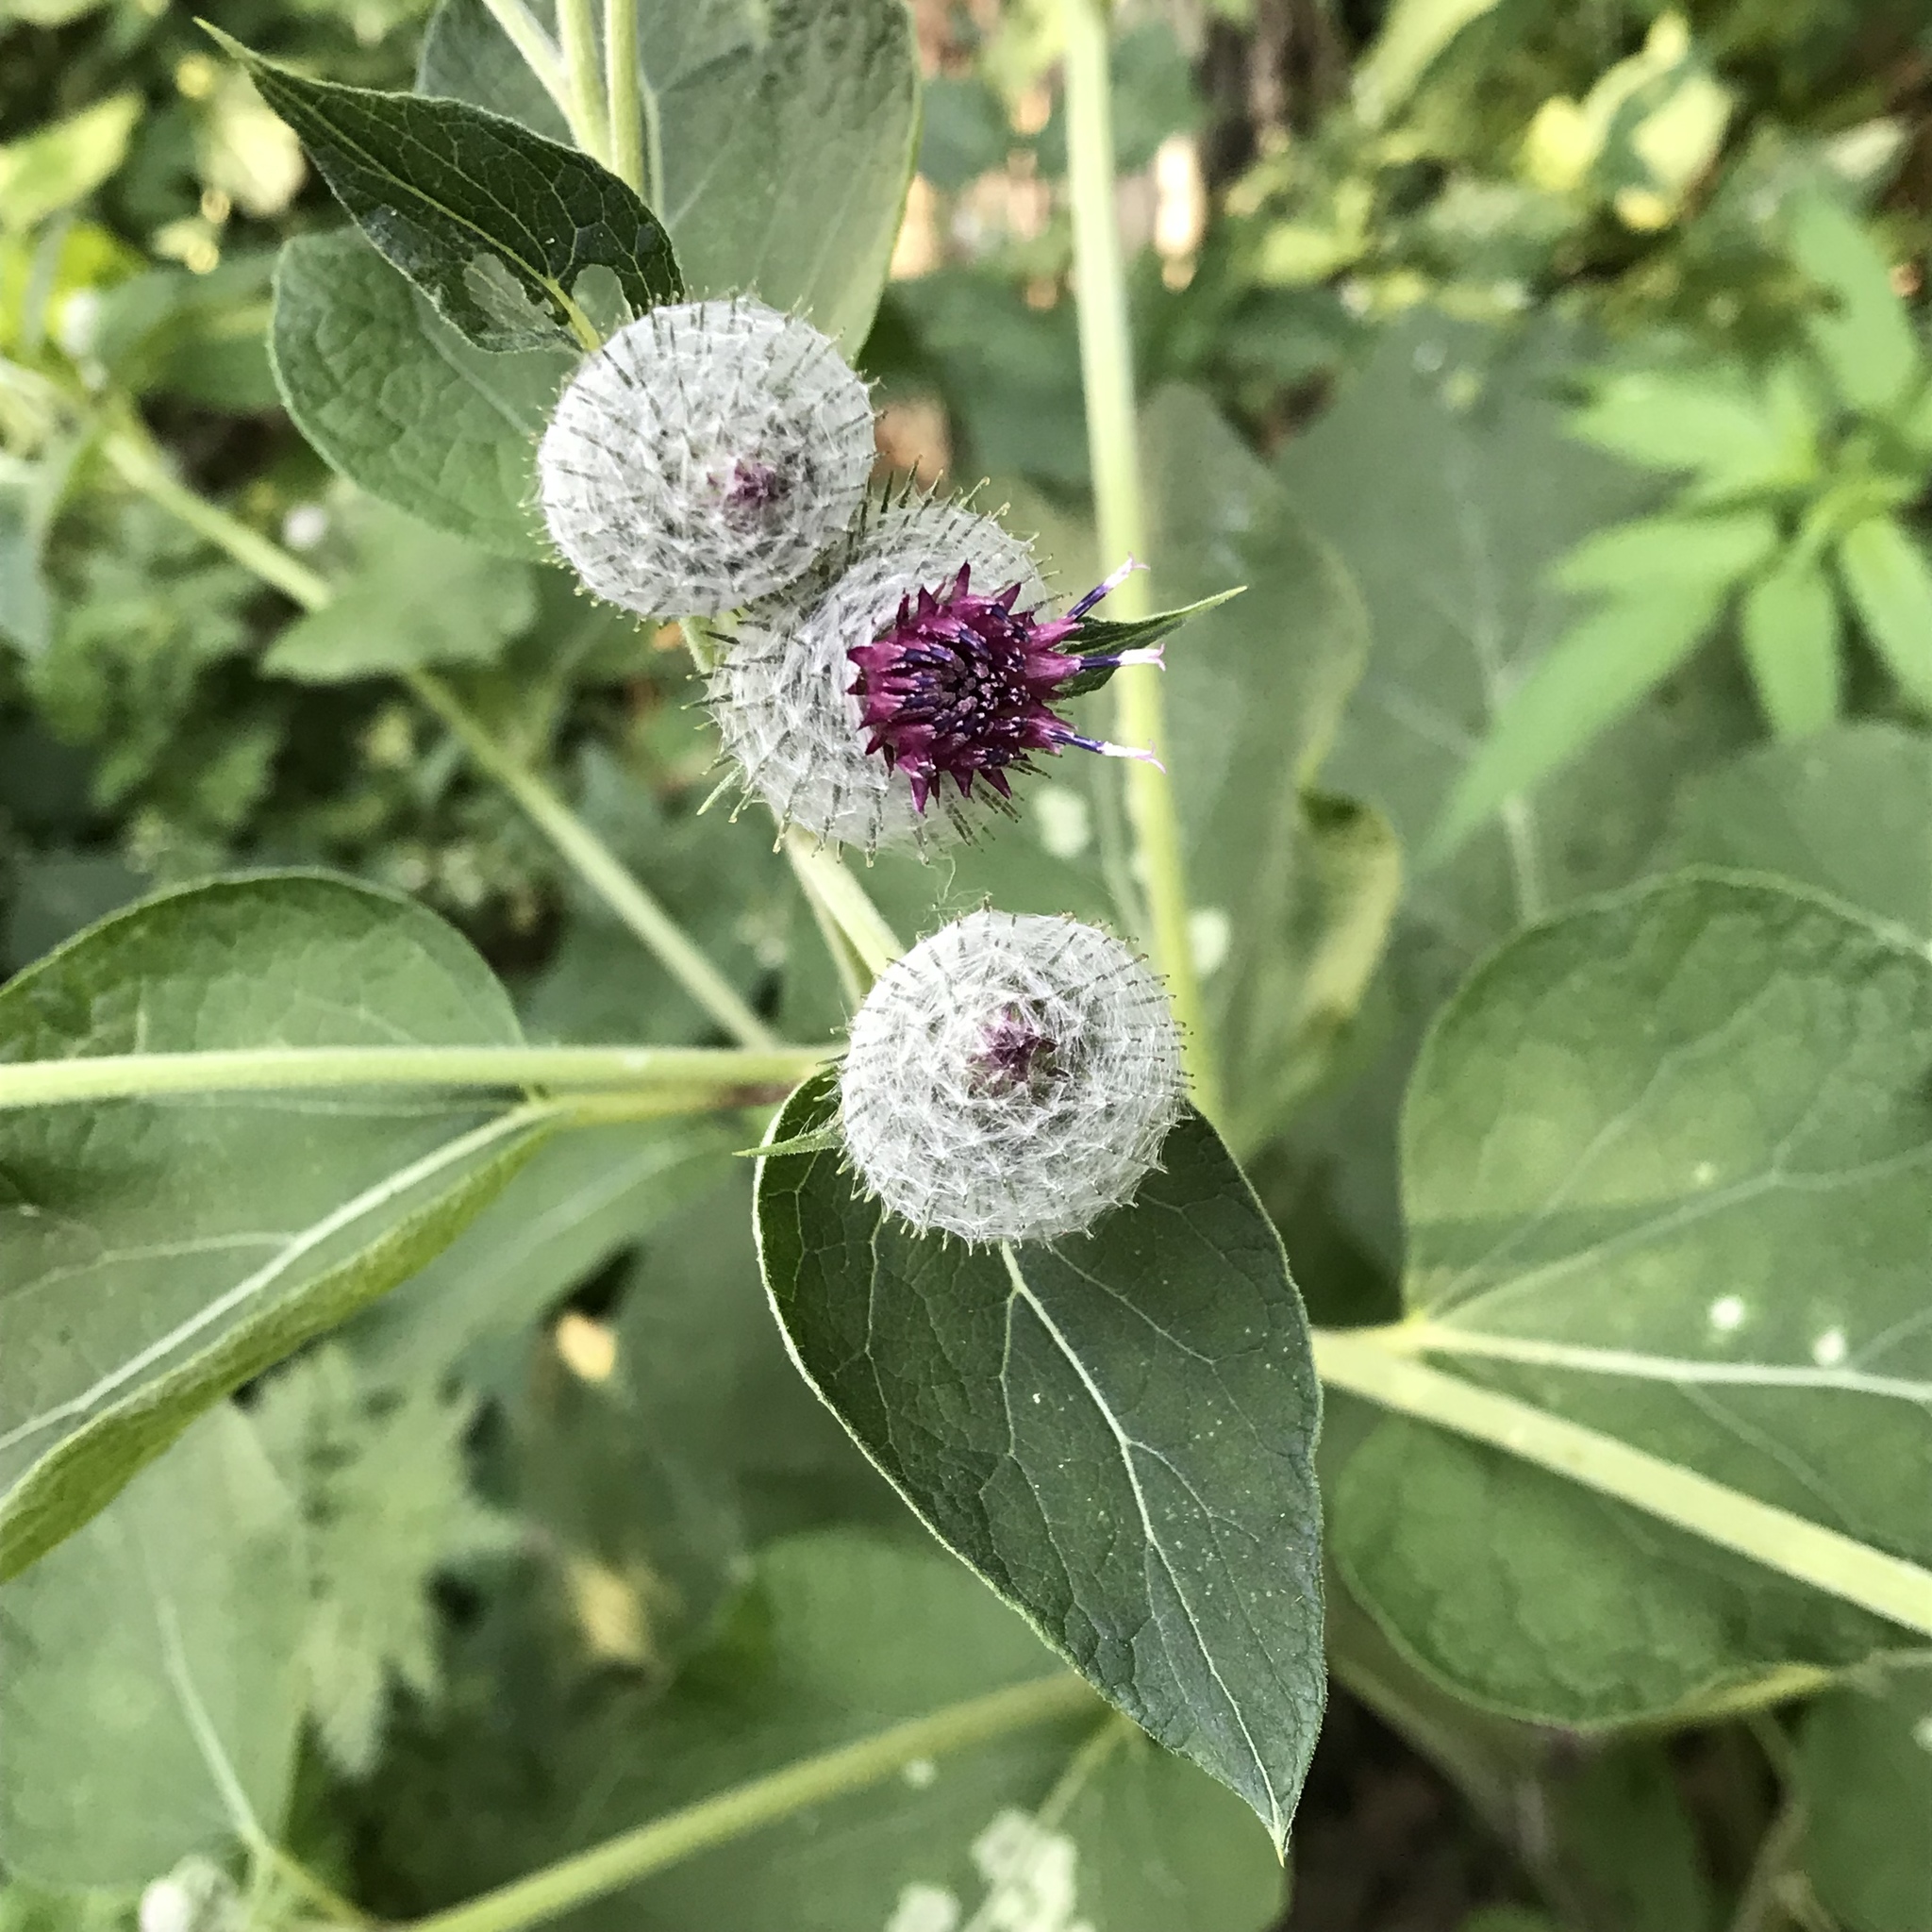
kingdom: Plantae
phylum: Tracheophyta
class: Magnoliopsida
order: Asterales
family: Asteraceae
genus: Arctium
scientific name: Arctium tomentosum
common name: Woolly burdock
